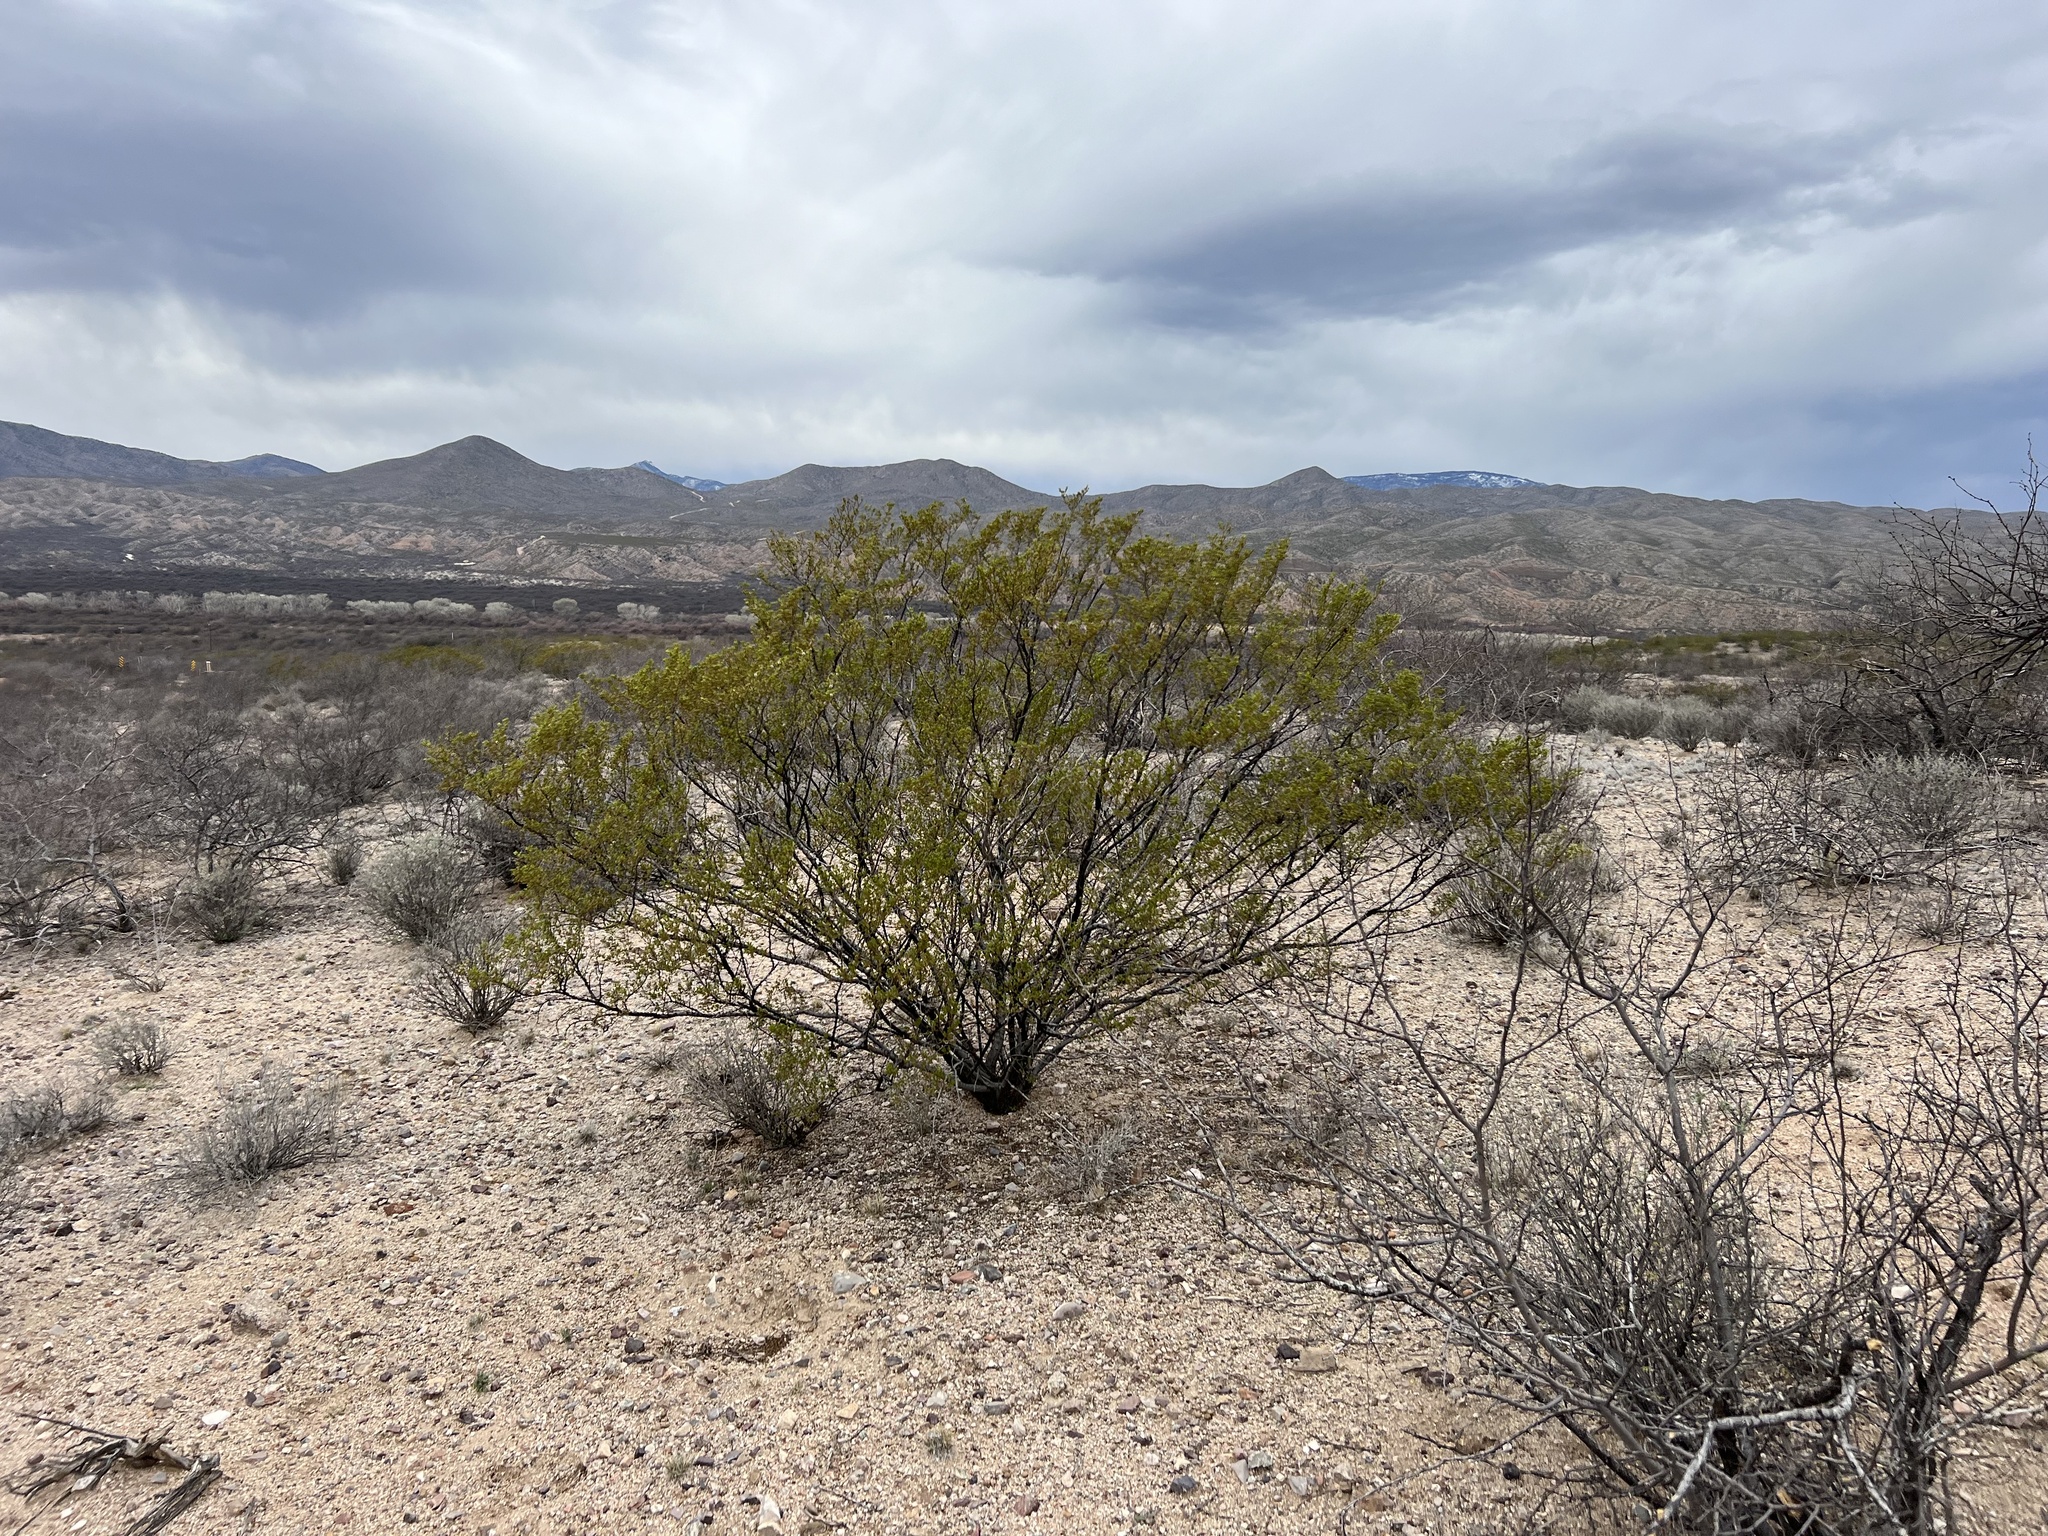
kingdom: Plantae
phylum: Tracheophyta
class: Magnoliopsida
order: Zygophyllales
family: Zygophyllaceae
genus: Larrea
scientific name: Larrea tridentata
